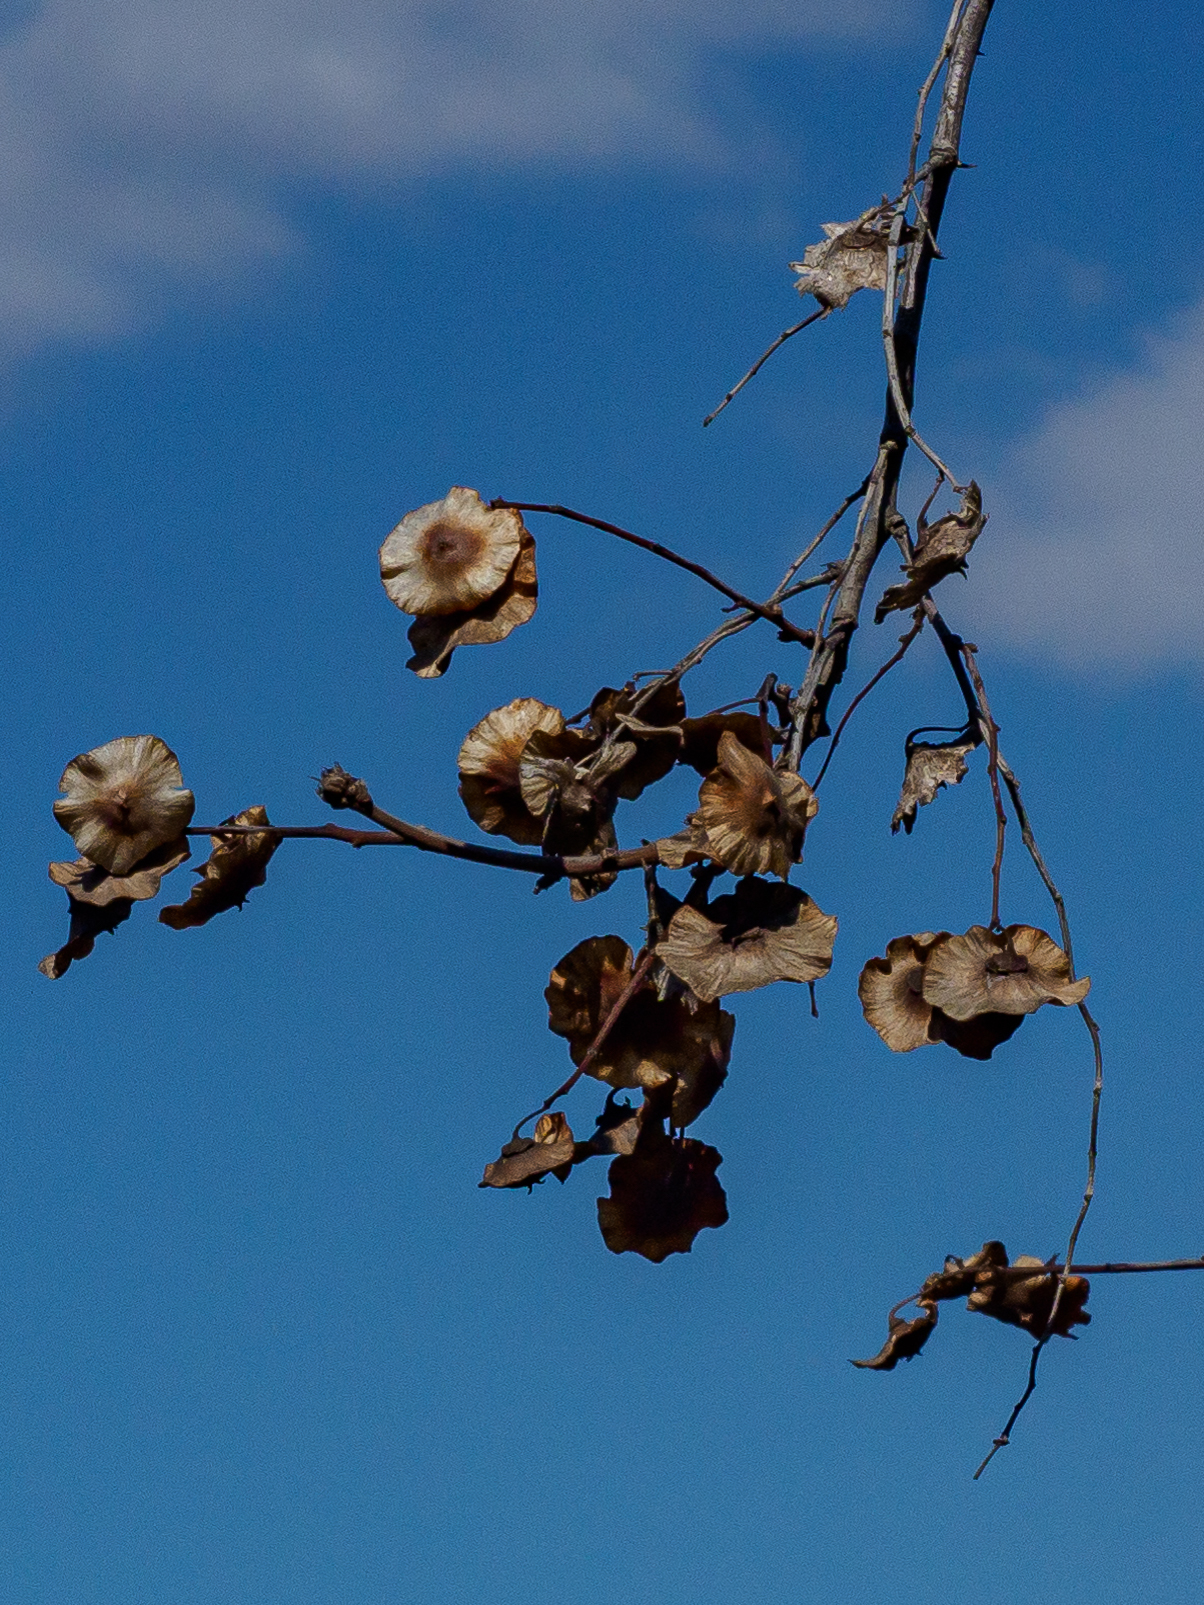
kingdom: Plantae
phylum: Tracheophyta
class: Magnoliopsida
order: Rosales
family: Rhamnaceae
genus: Paliurus
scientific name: Paliurus spina-christi
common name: Jeruselem thorn
